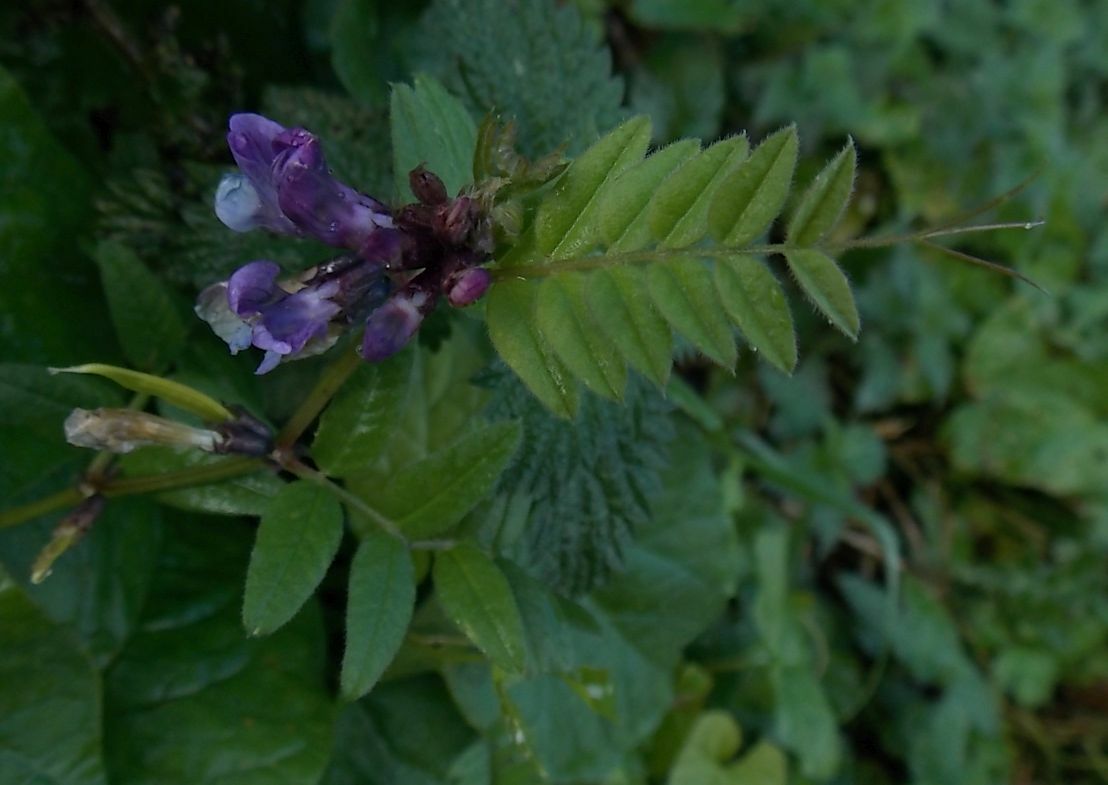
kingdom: Plantae
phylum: Tracheophyta
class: Magnoliopsida
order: Fabales
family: Fabaceae
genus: Vicia
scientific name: Vicia sepium
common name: Bush vetch
